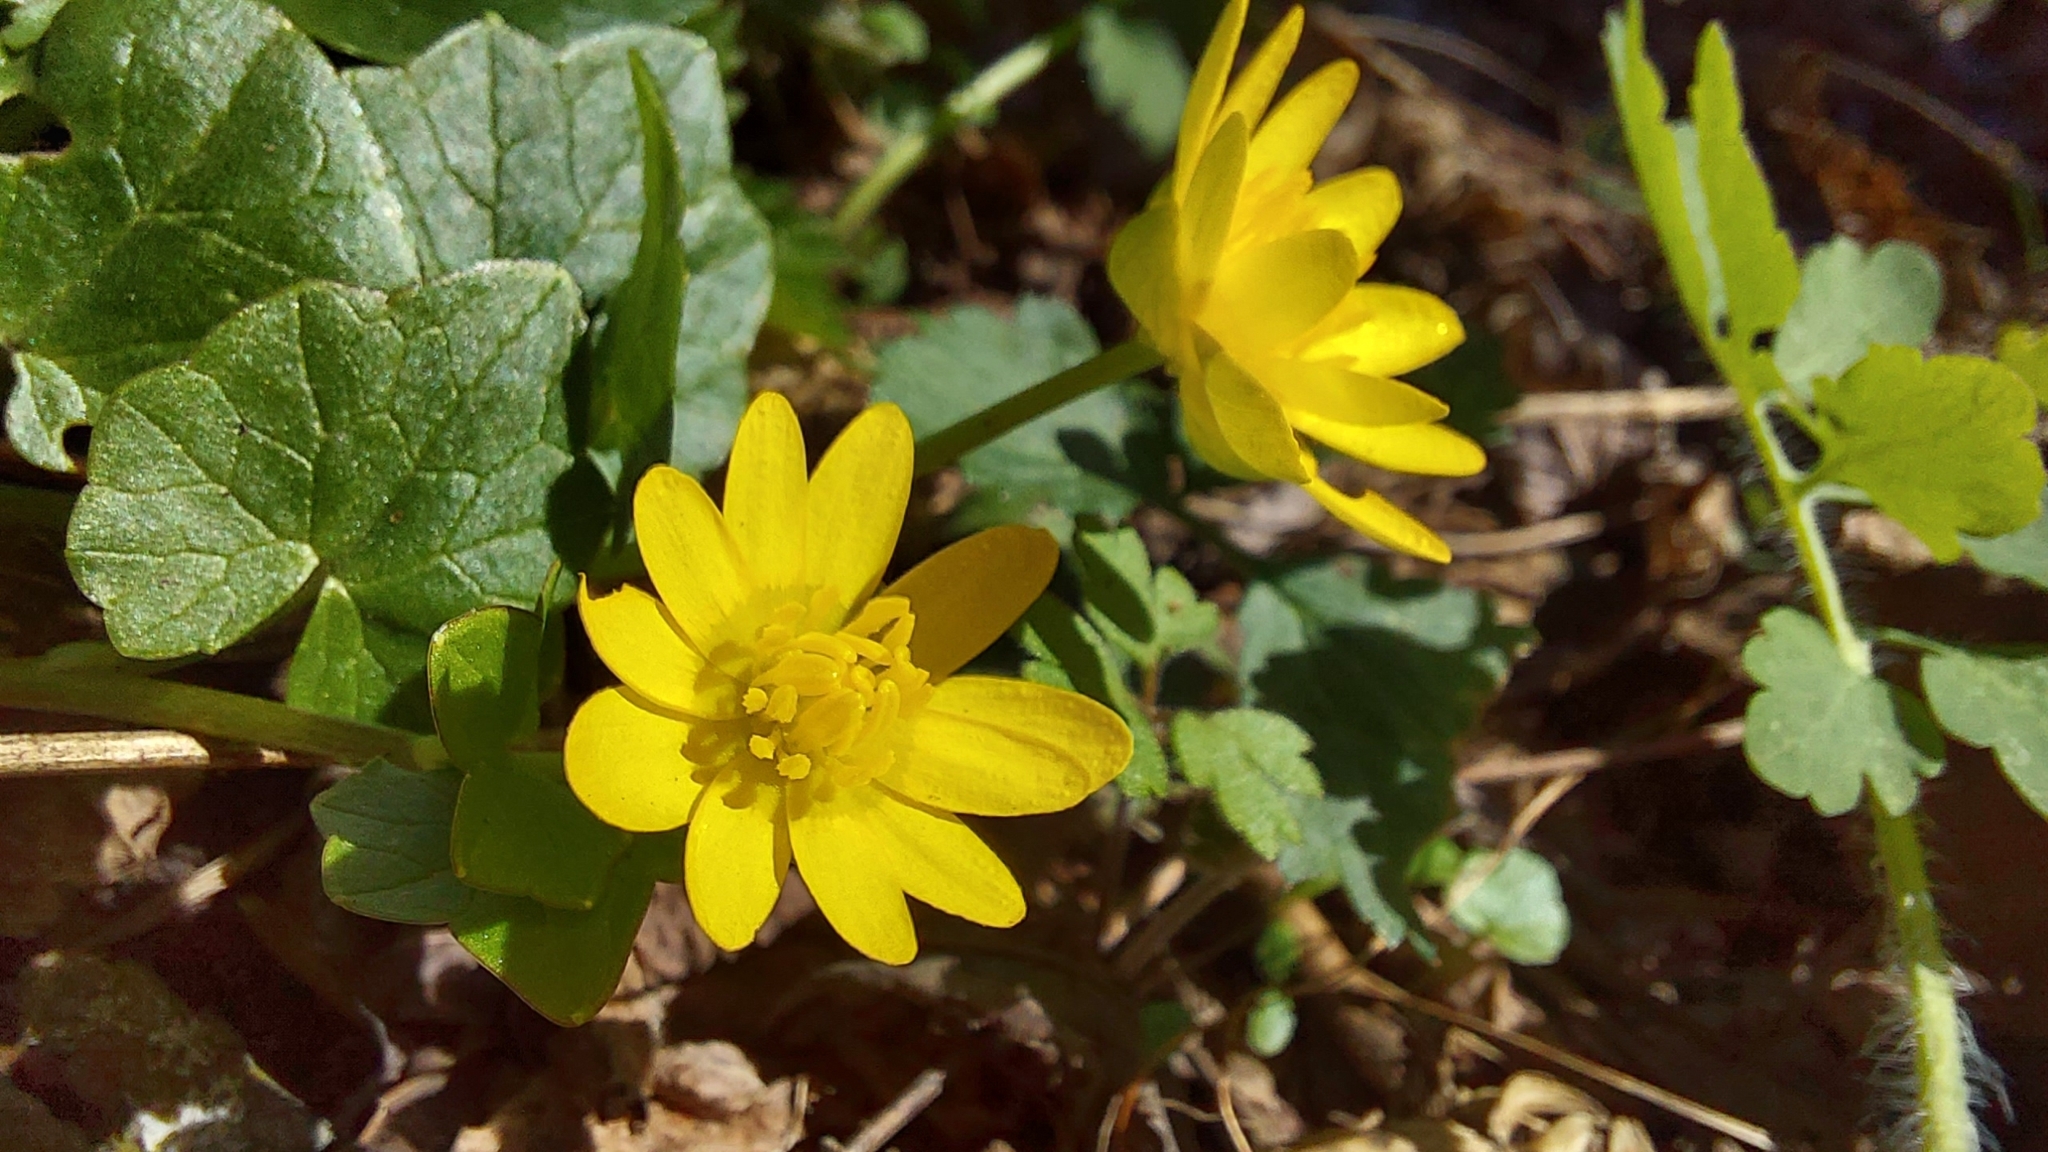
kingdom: Plantae
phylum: Tracheophyta
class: Magnoliopsida
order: Ranunculales
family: Ranunculaceae
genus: Ficaria
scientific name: Ficaria verna
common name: Lesser celandine
